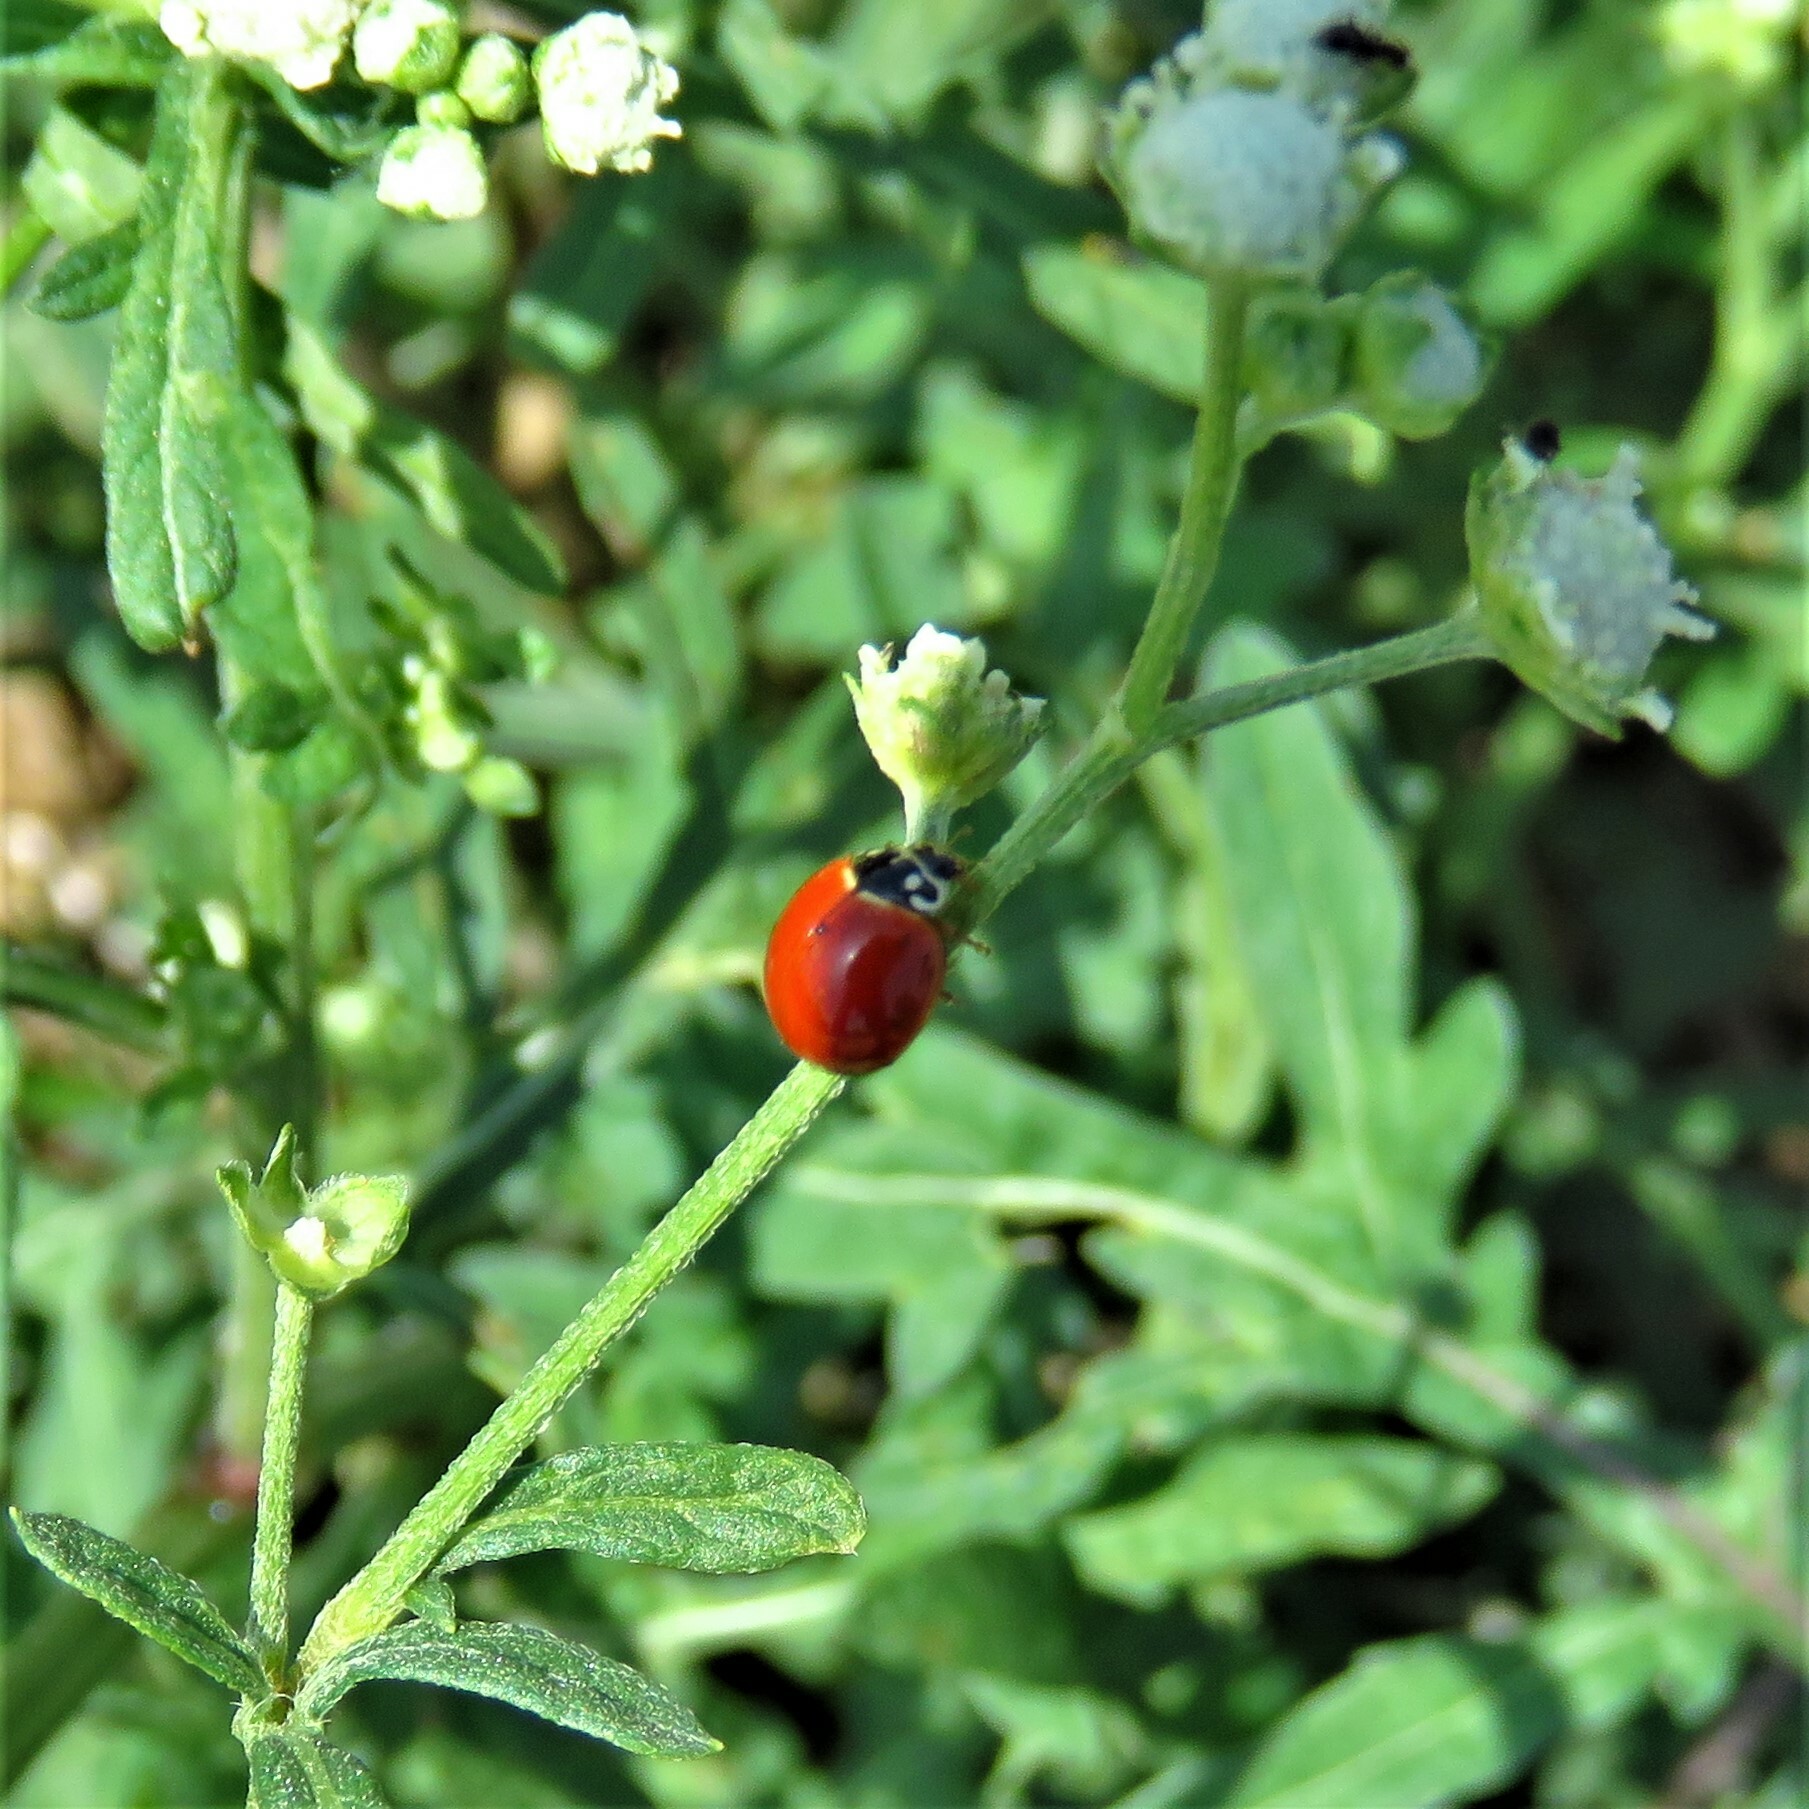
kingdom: Animalia
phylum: Arthropoda
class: Insecta
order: Coleoptera
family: Coccinellidae
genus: Cycloneda
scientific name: Cycloneda sanguinea
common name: Ladybird beetle
